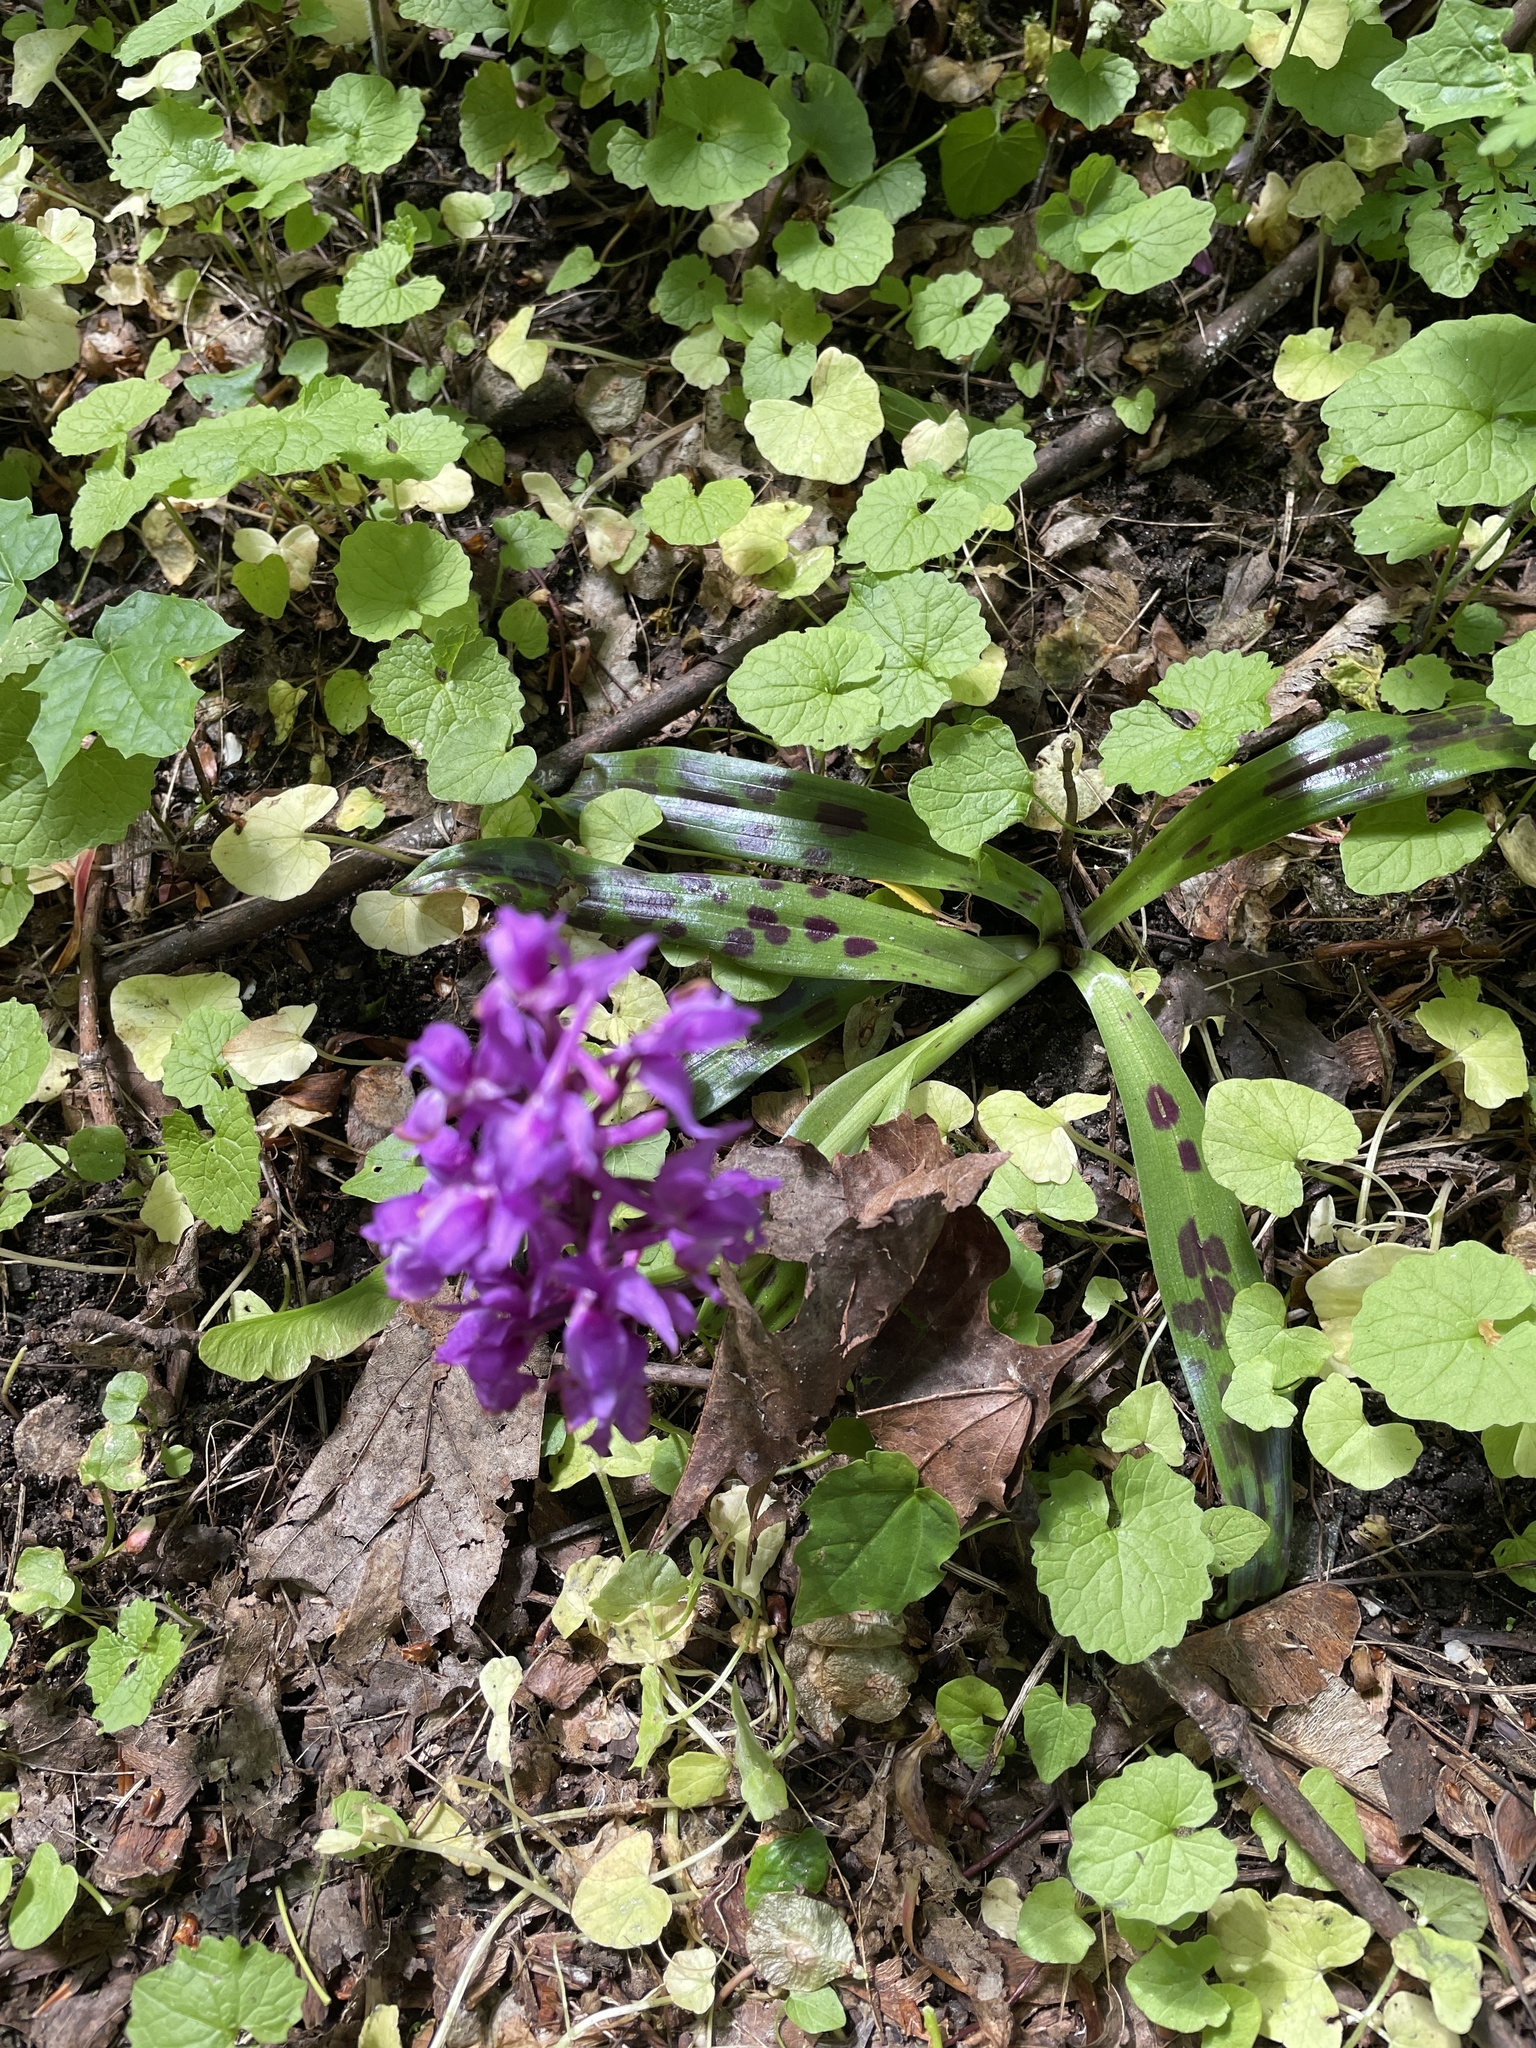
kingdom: Plantae
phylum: Tracheophyta
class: Liliopsida
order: Asparagales
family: Orchidaceae
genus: Orchis
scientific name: Orchis mascula
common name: Early-purple orchid
